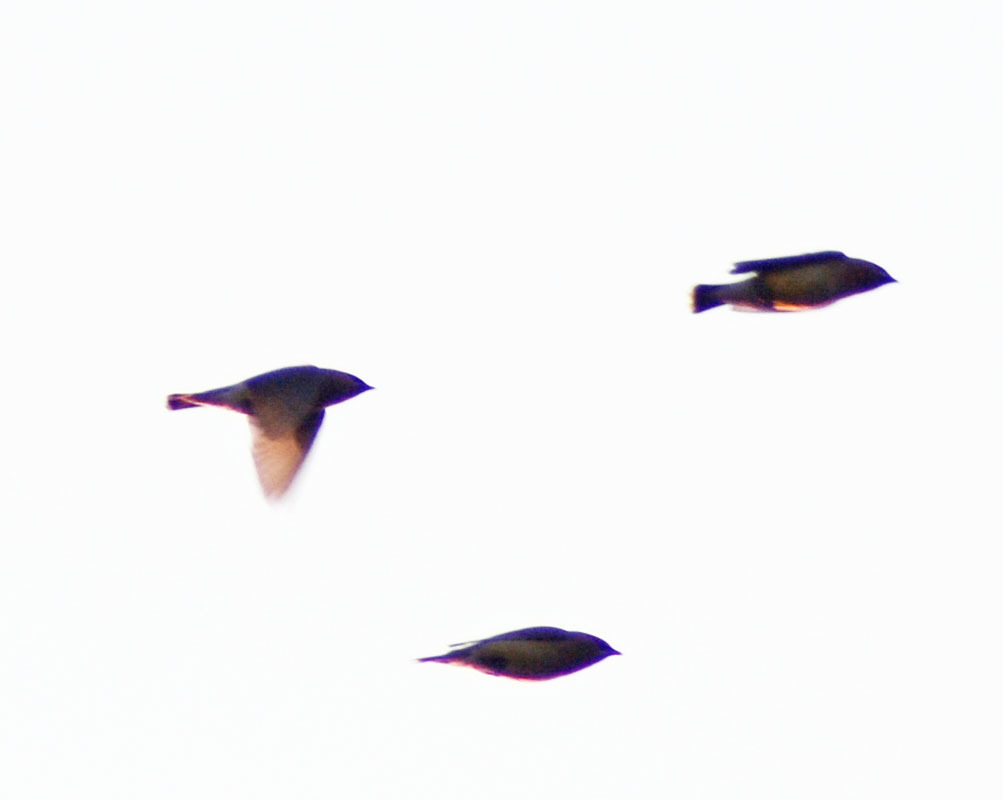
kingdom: Animalia
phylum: Chordata
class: Aves
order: Passeriformes
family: Bombycillidae
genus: Bombycilla
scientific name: Bombycilla cedrorum
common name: Cedar waxwing
